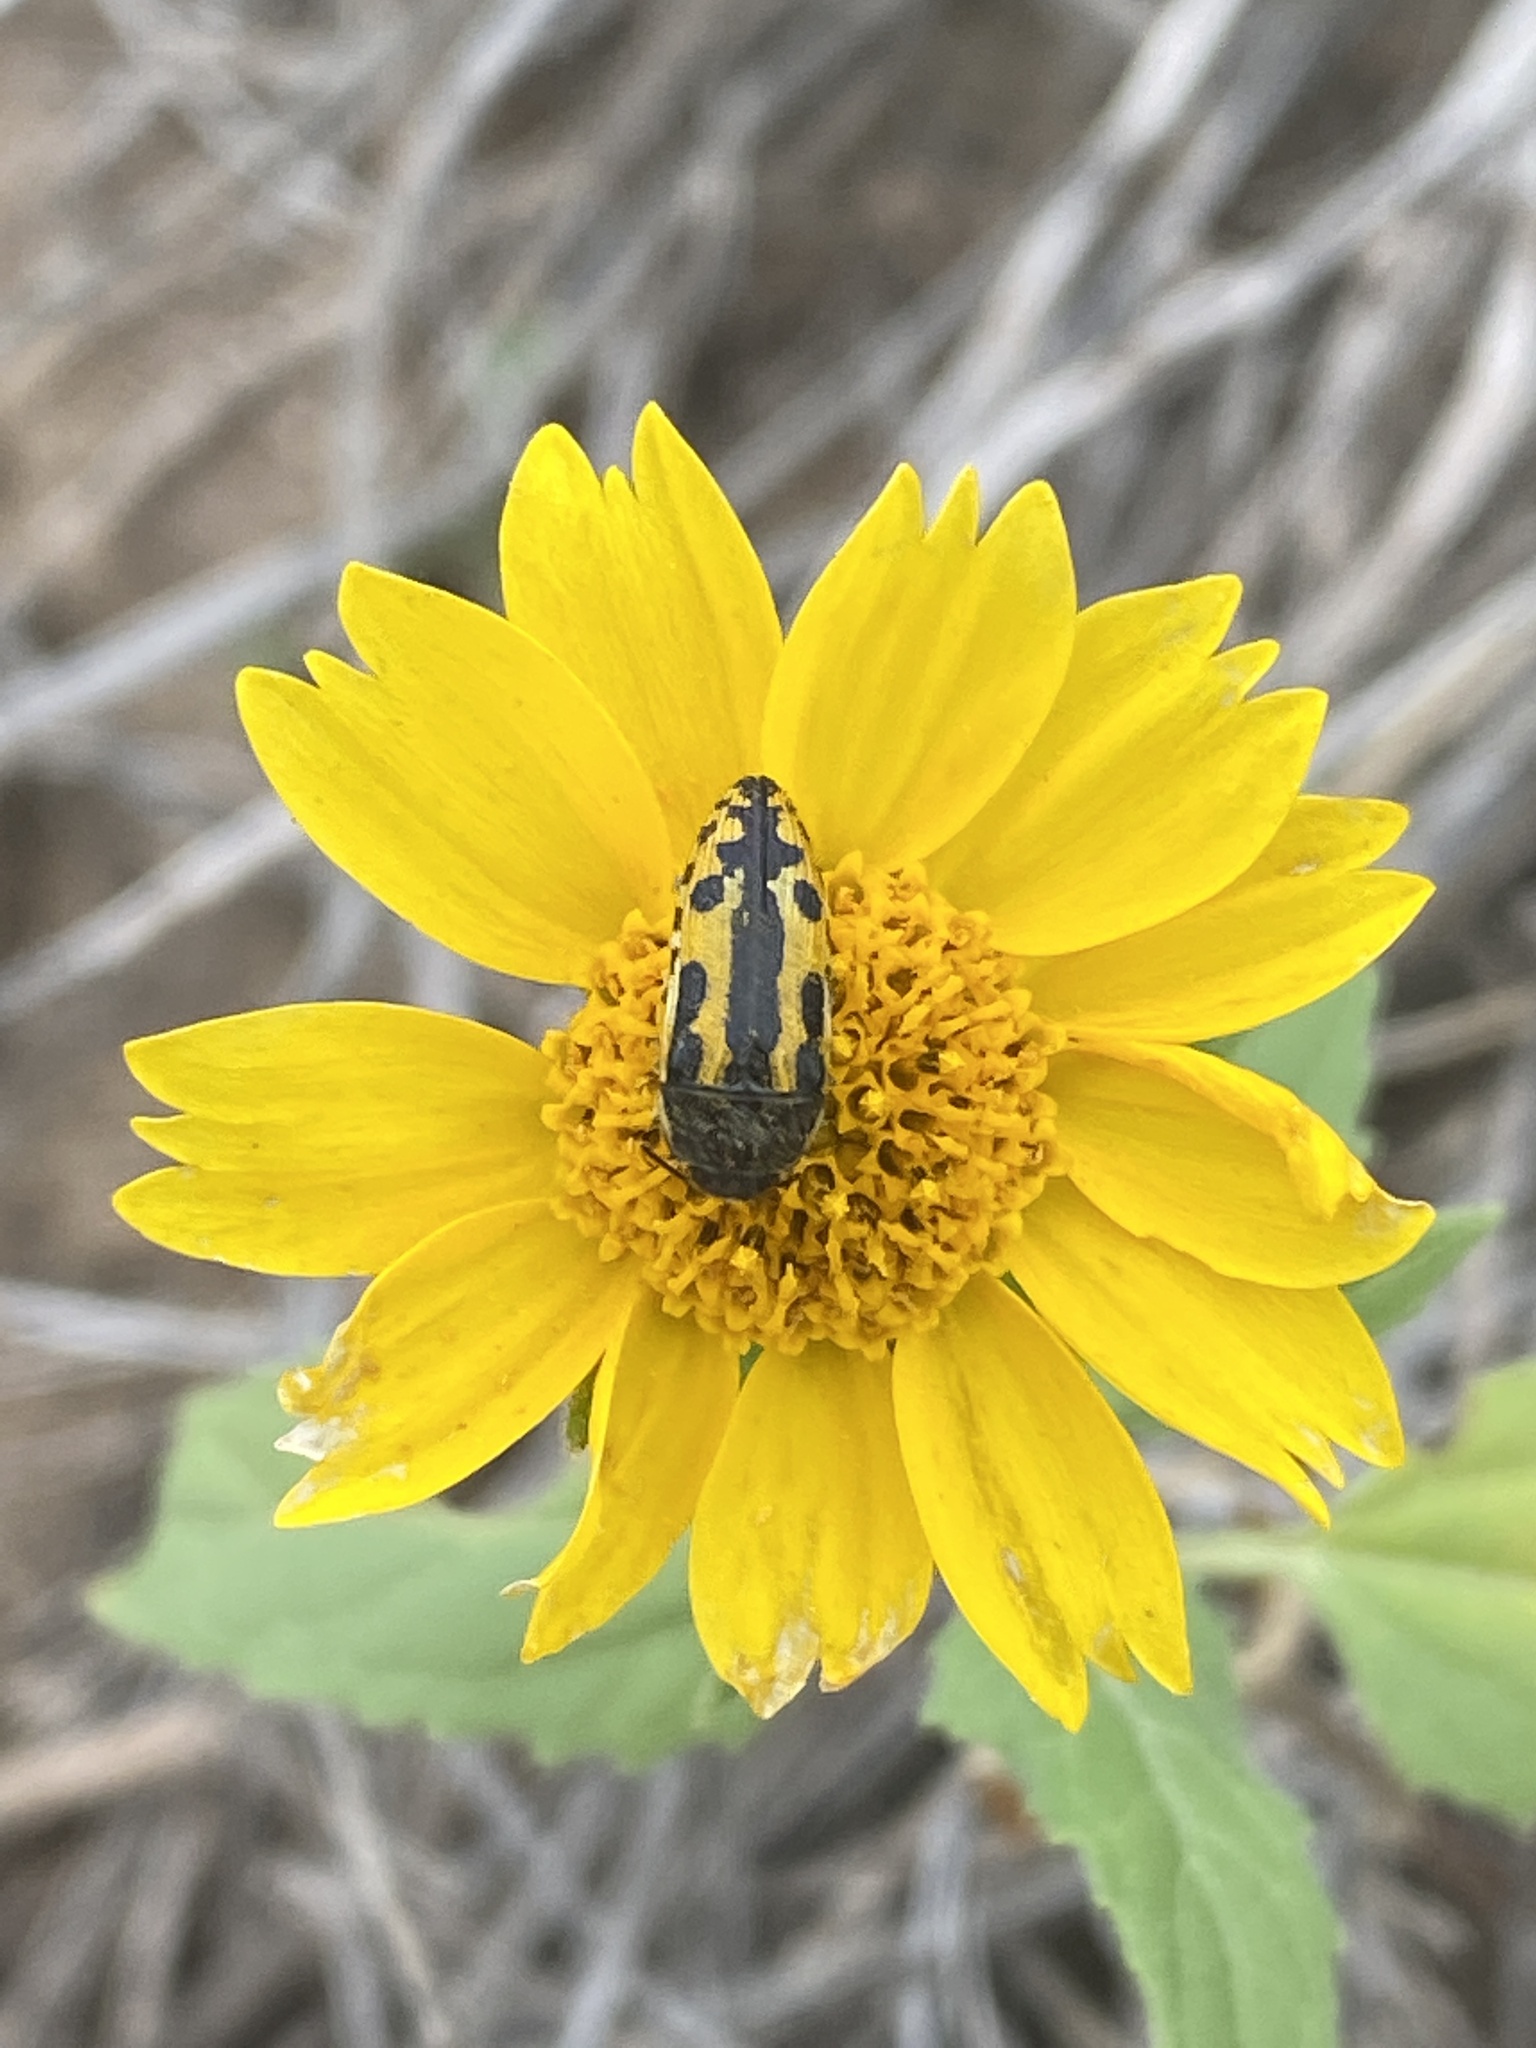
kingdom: Animalia
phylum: Arthropoda
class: Insecta
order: Coleoptera
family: Buprestidae
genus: Acmaeodera
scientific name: Acmaeodera scalaris
